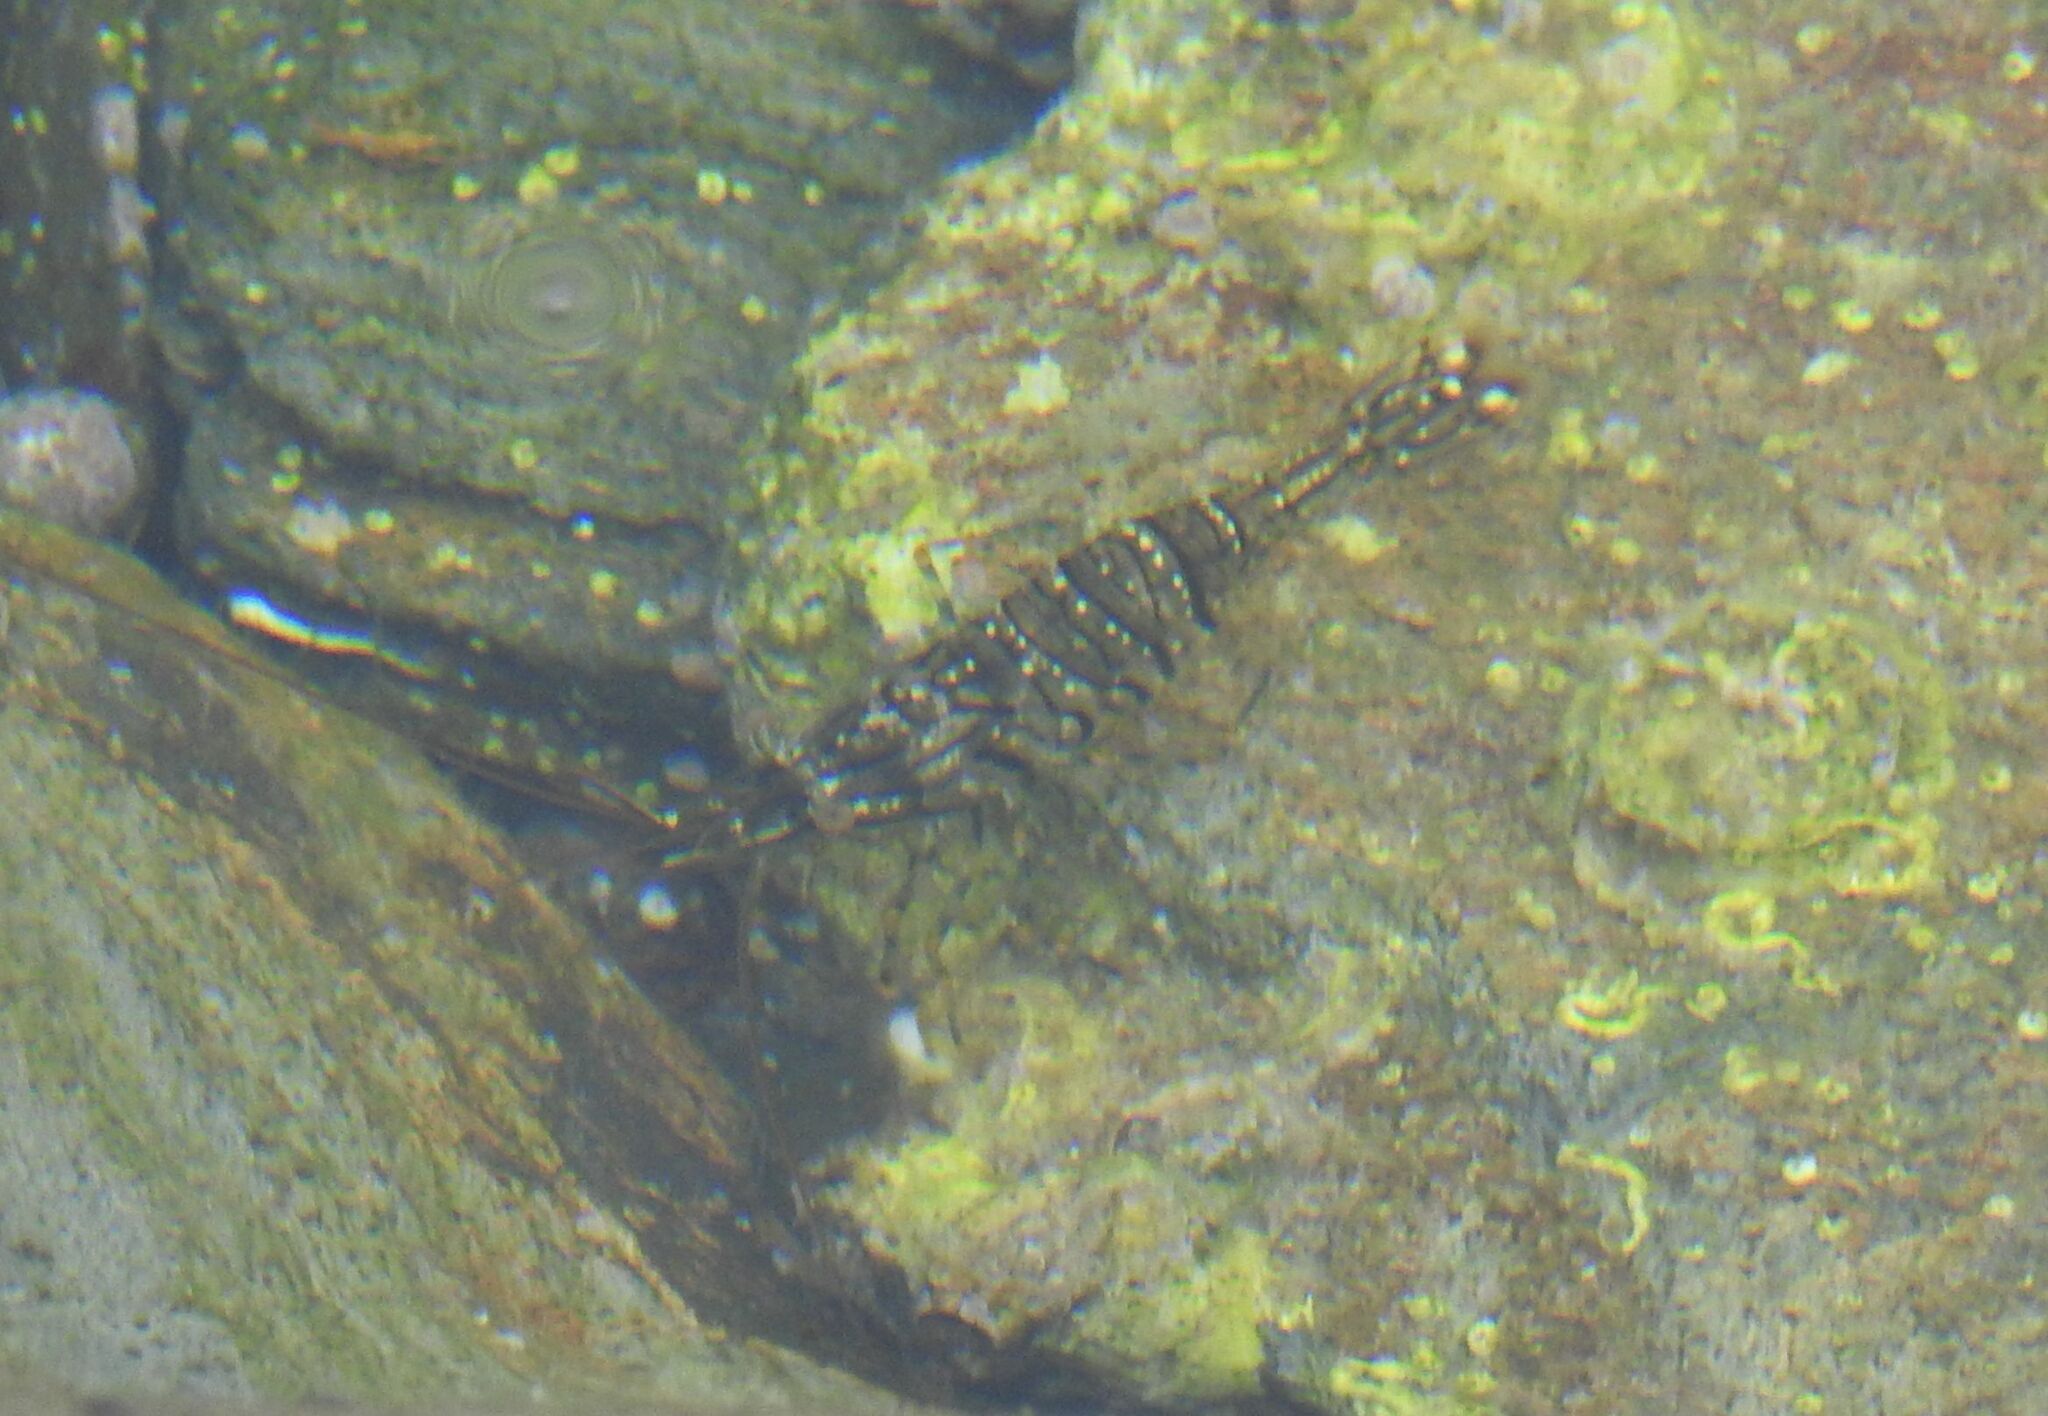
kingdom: Animalia
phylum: Arthropoda
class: Malacostraca
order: Decapoda
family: Palaemonidae
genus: Palaemon
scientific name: Palaemon elegans
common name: Grass prawm
